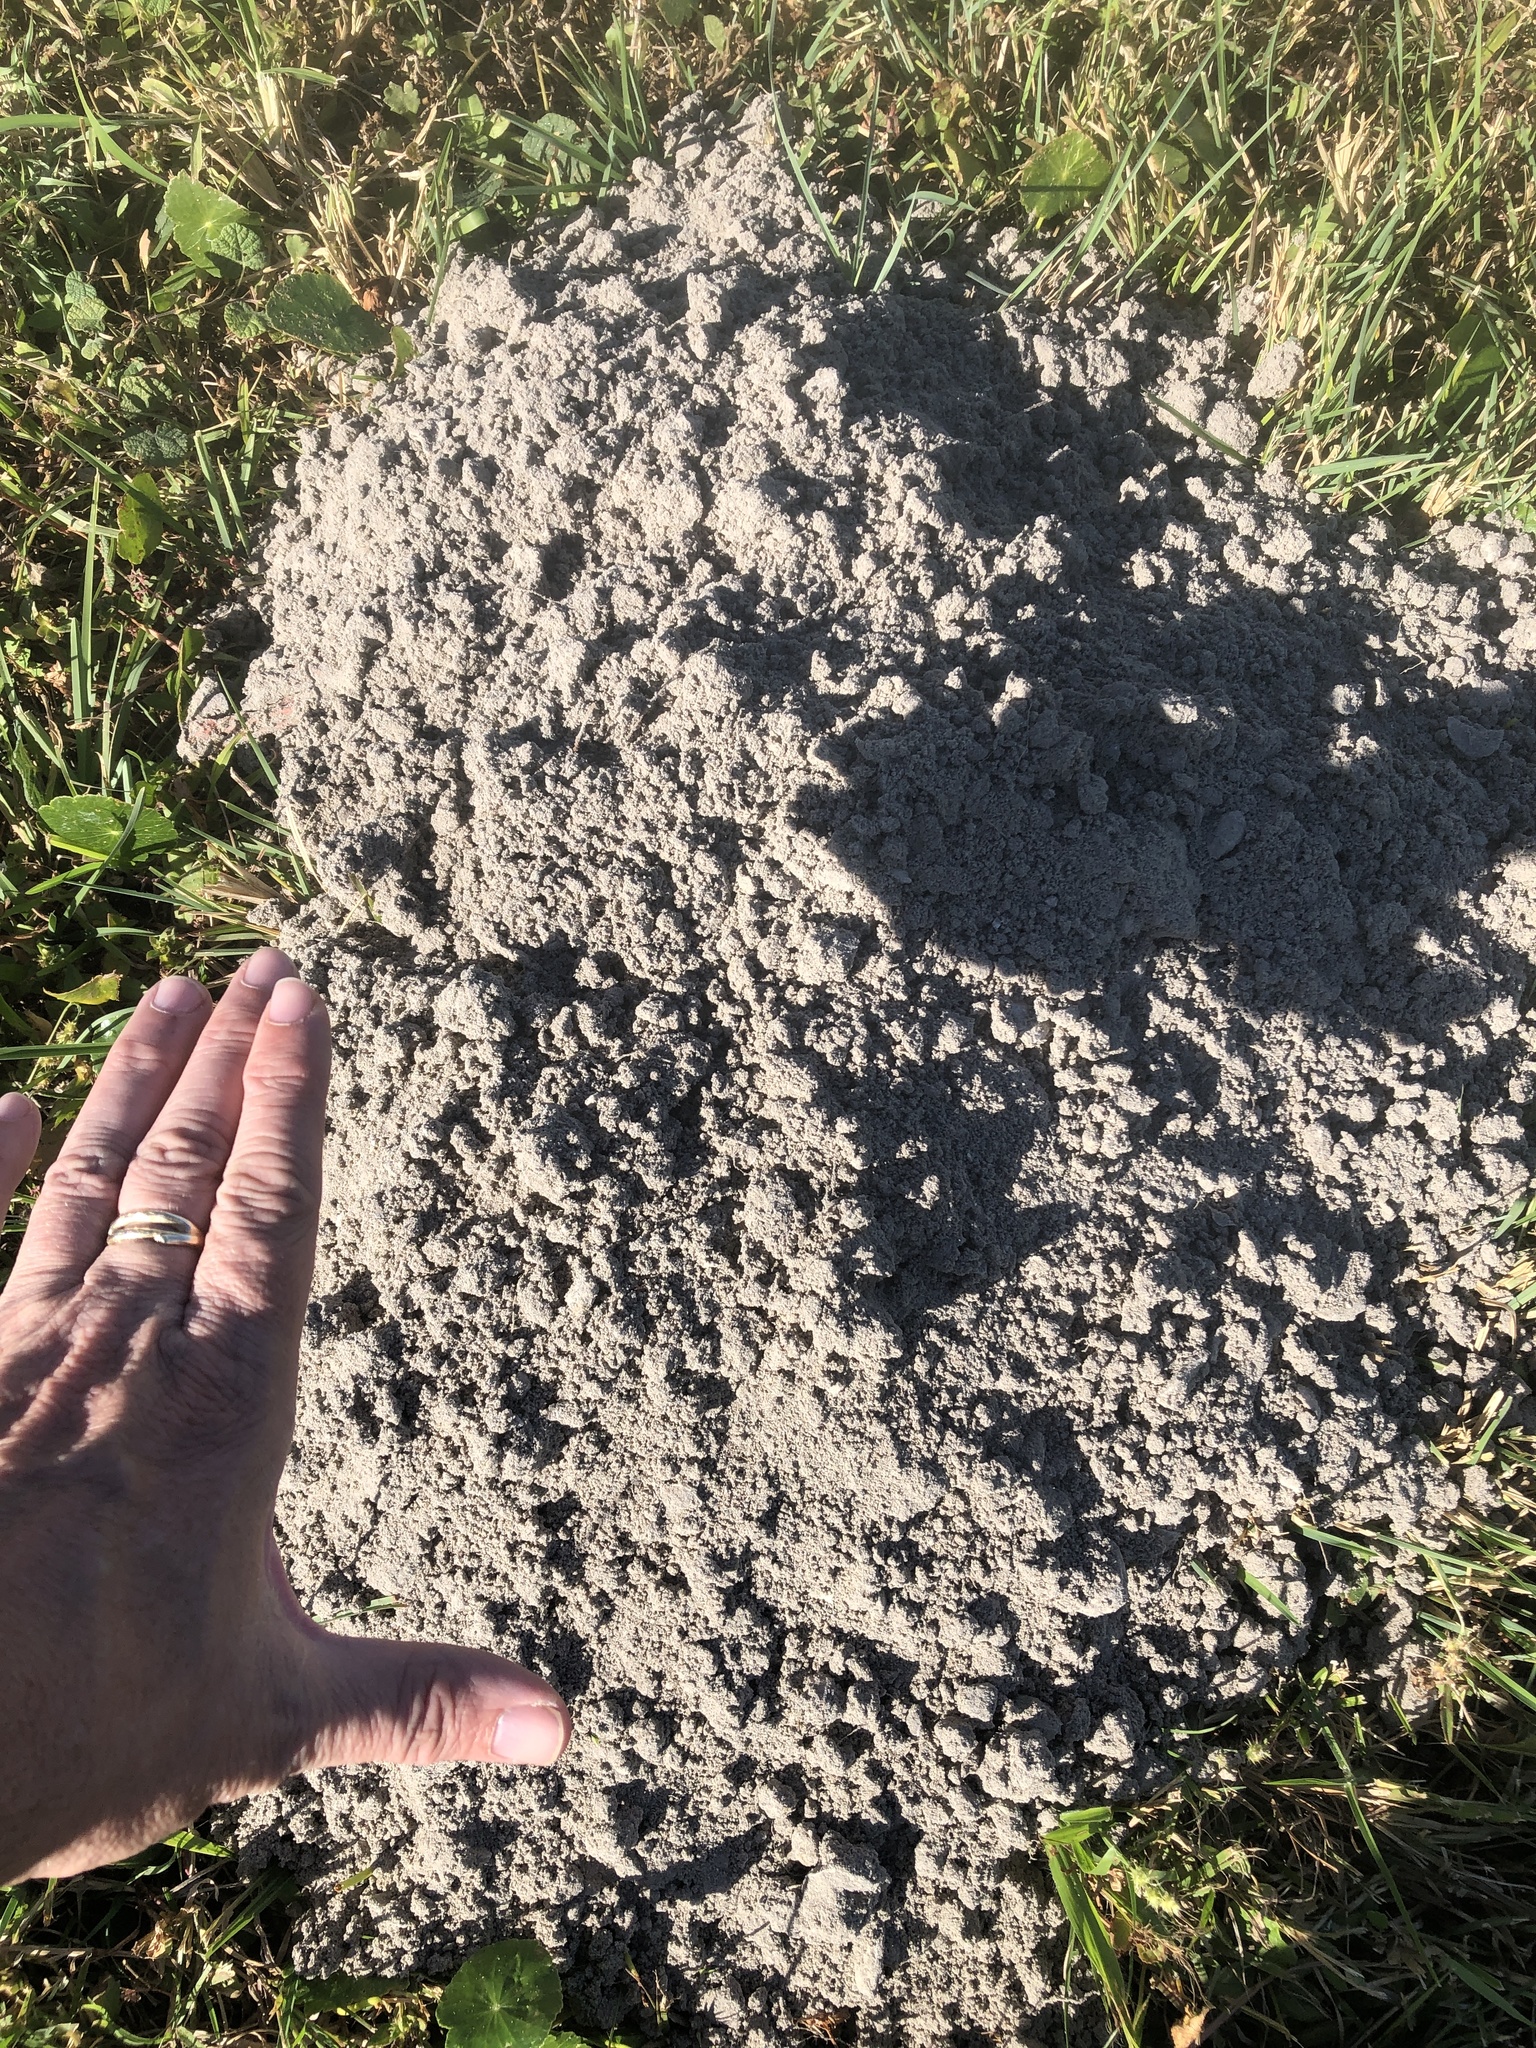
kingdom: Animalia
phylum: Chordata
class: Mammalia
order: Rodentia
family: Geomyidae
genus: Geomys
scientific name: Geomys personatus
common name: Texas pocket gopher
